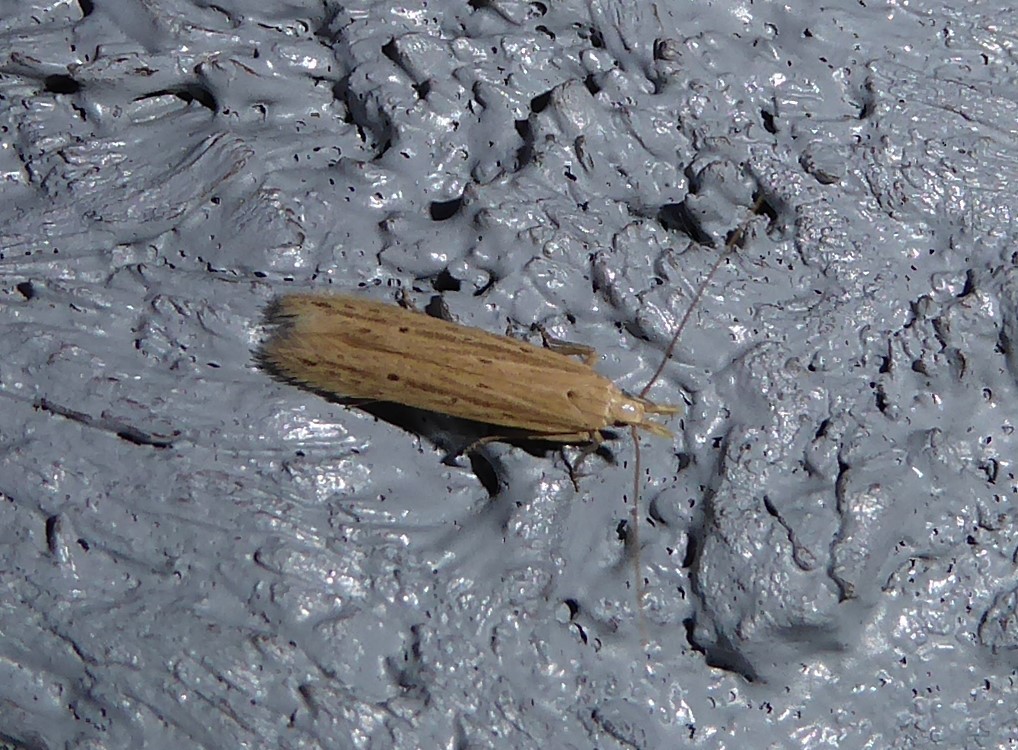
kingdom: Animalia
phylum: Arthropoda
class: Insecta
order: Lepidoptera
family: Gelechiidae
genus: Epiphthora
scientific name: Epiphthora calamogonus
